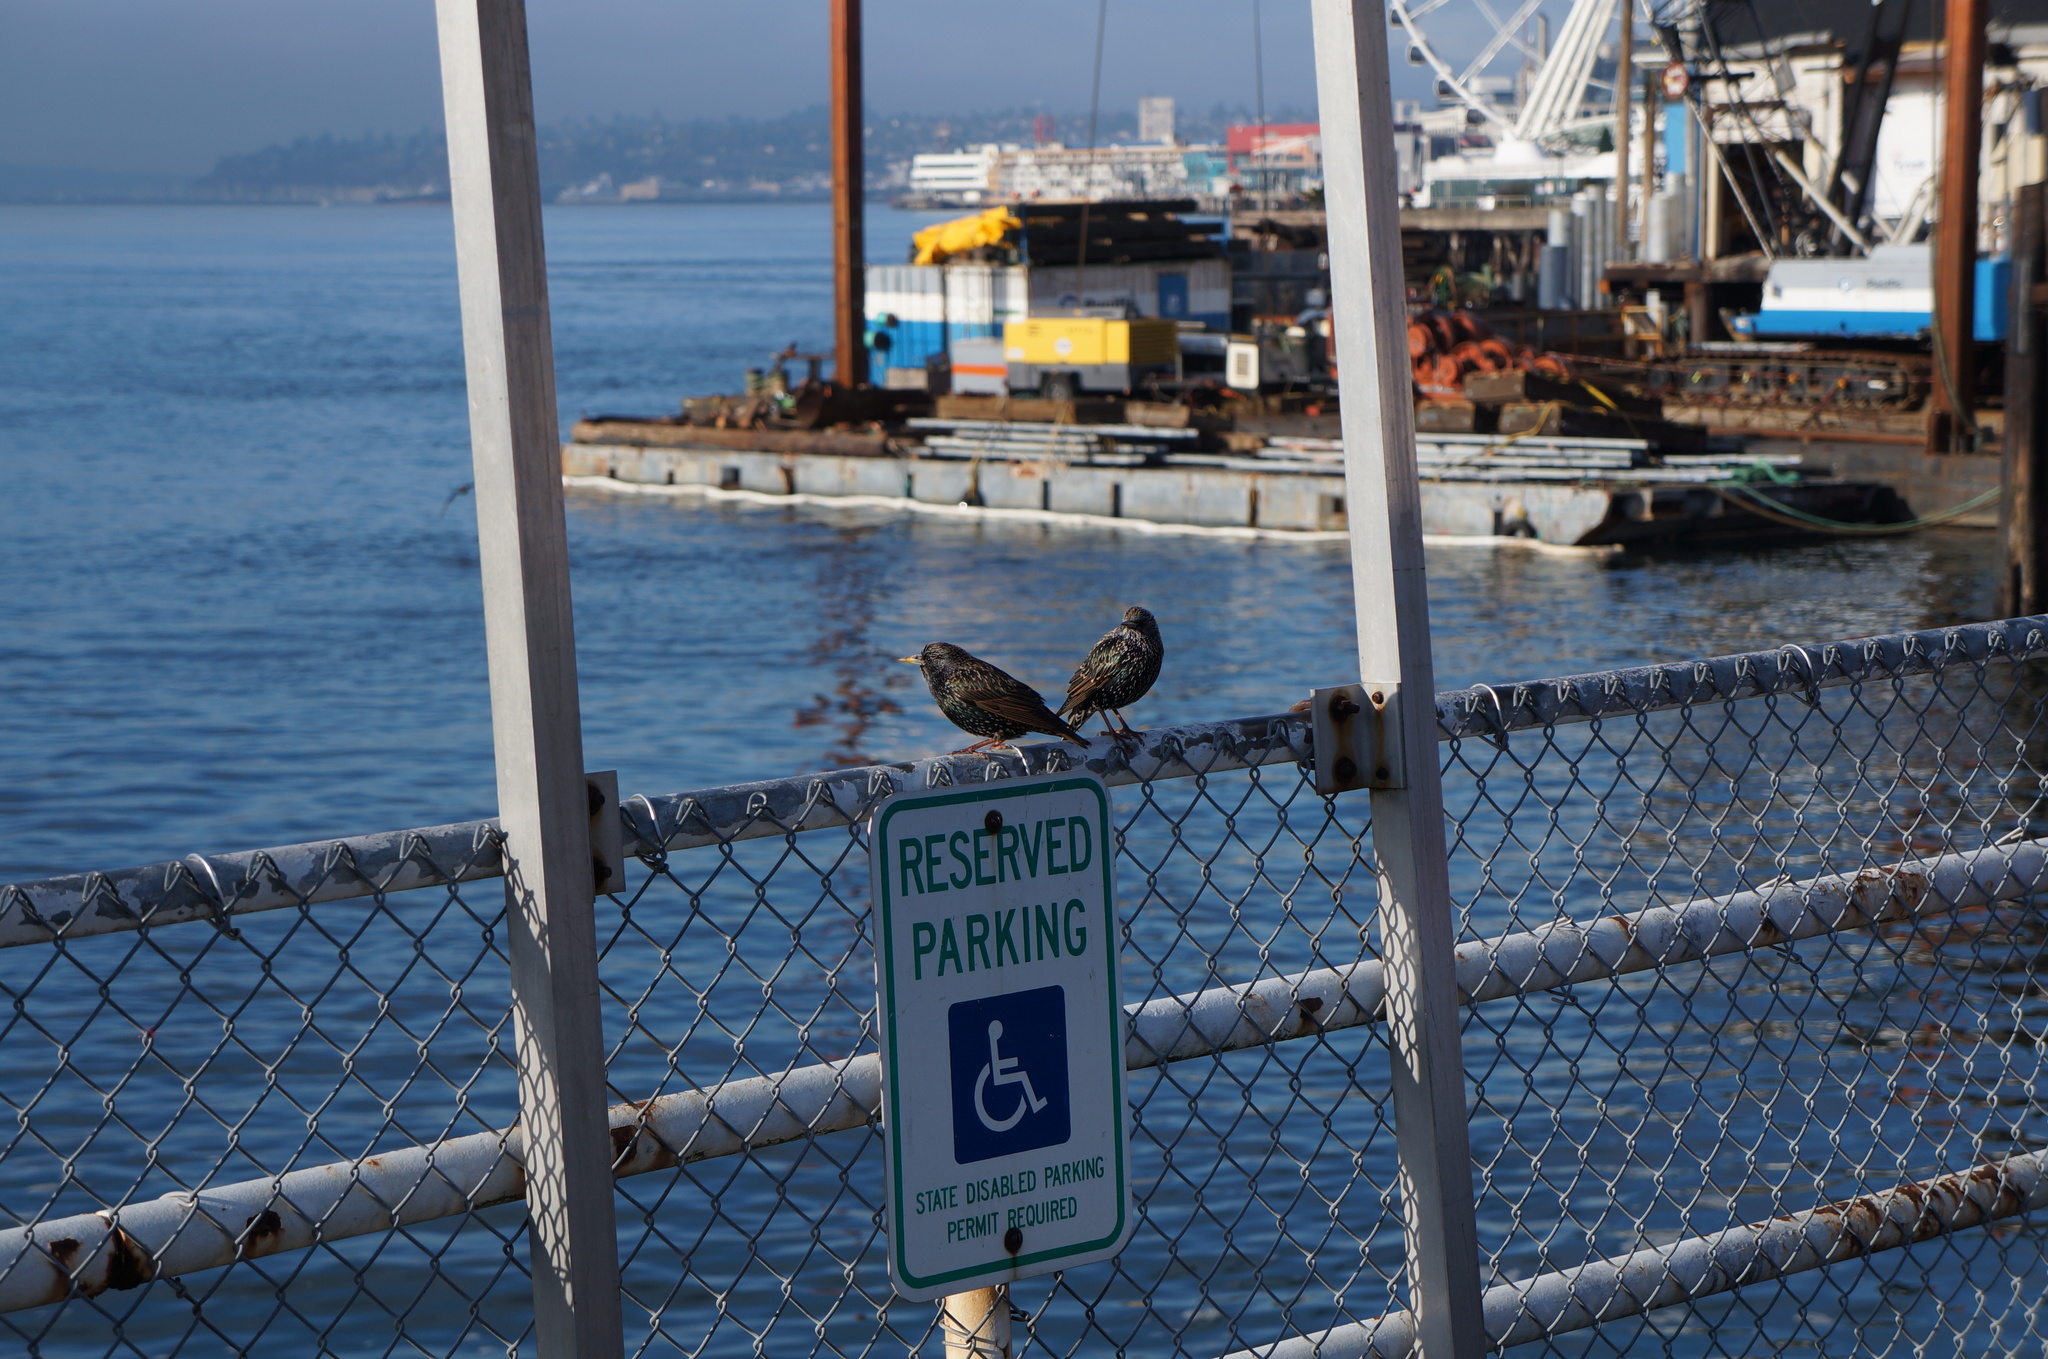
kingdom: Animalia
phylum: Chordata
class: Aves
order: Passeriformes
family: Sturnidae
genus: Sturnus
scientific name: Sturnus vulgaris
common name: Common starling
